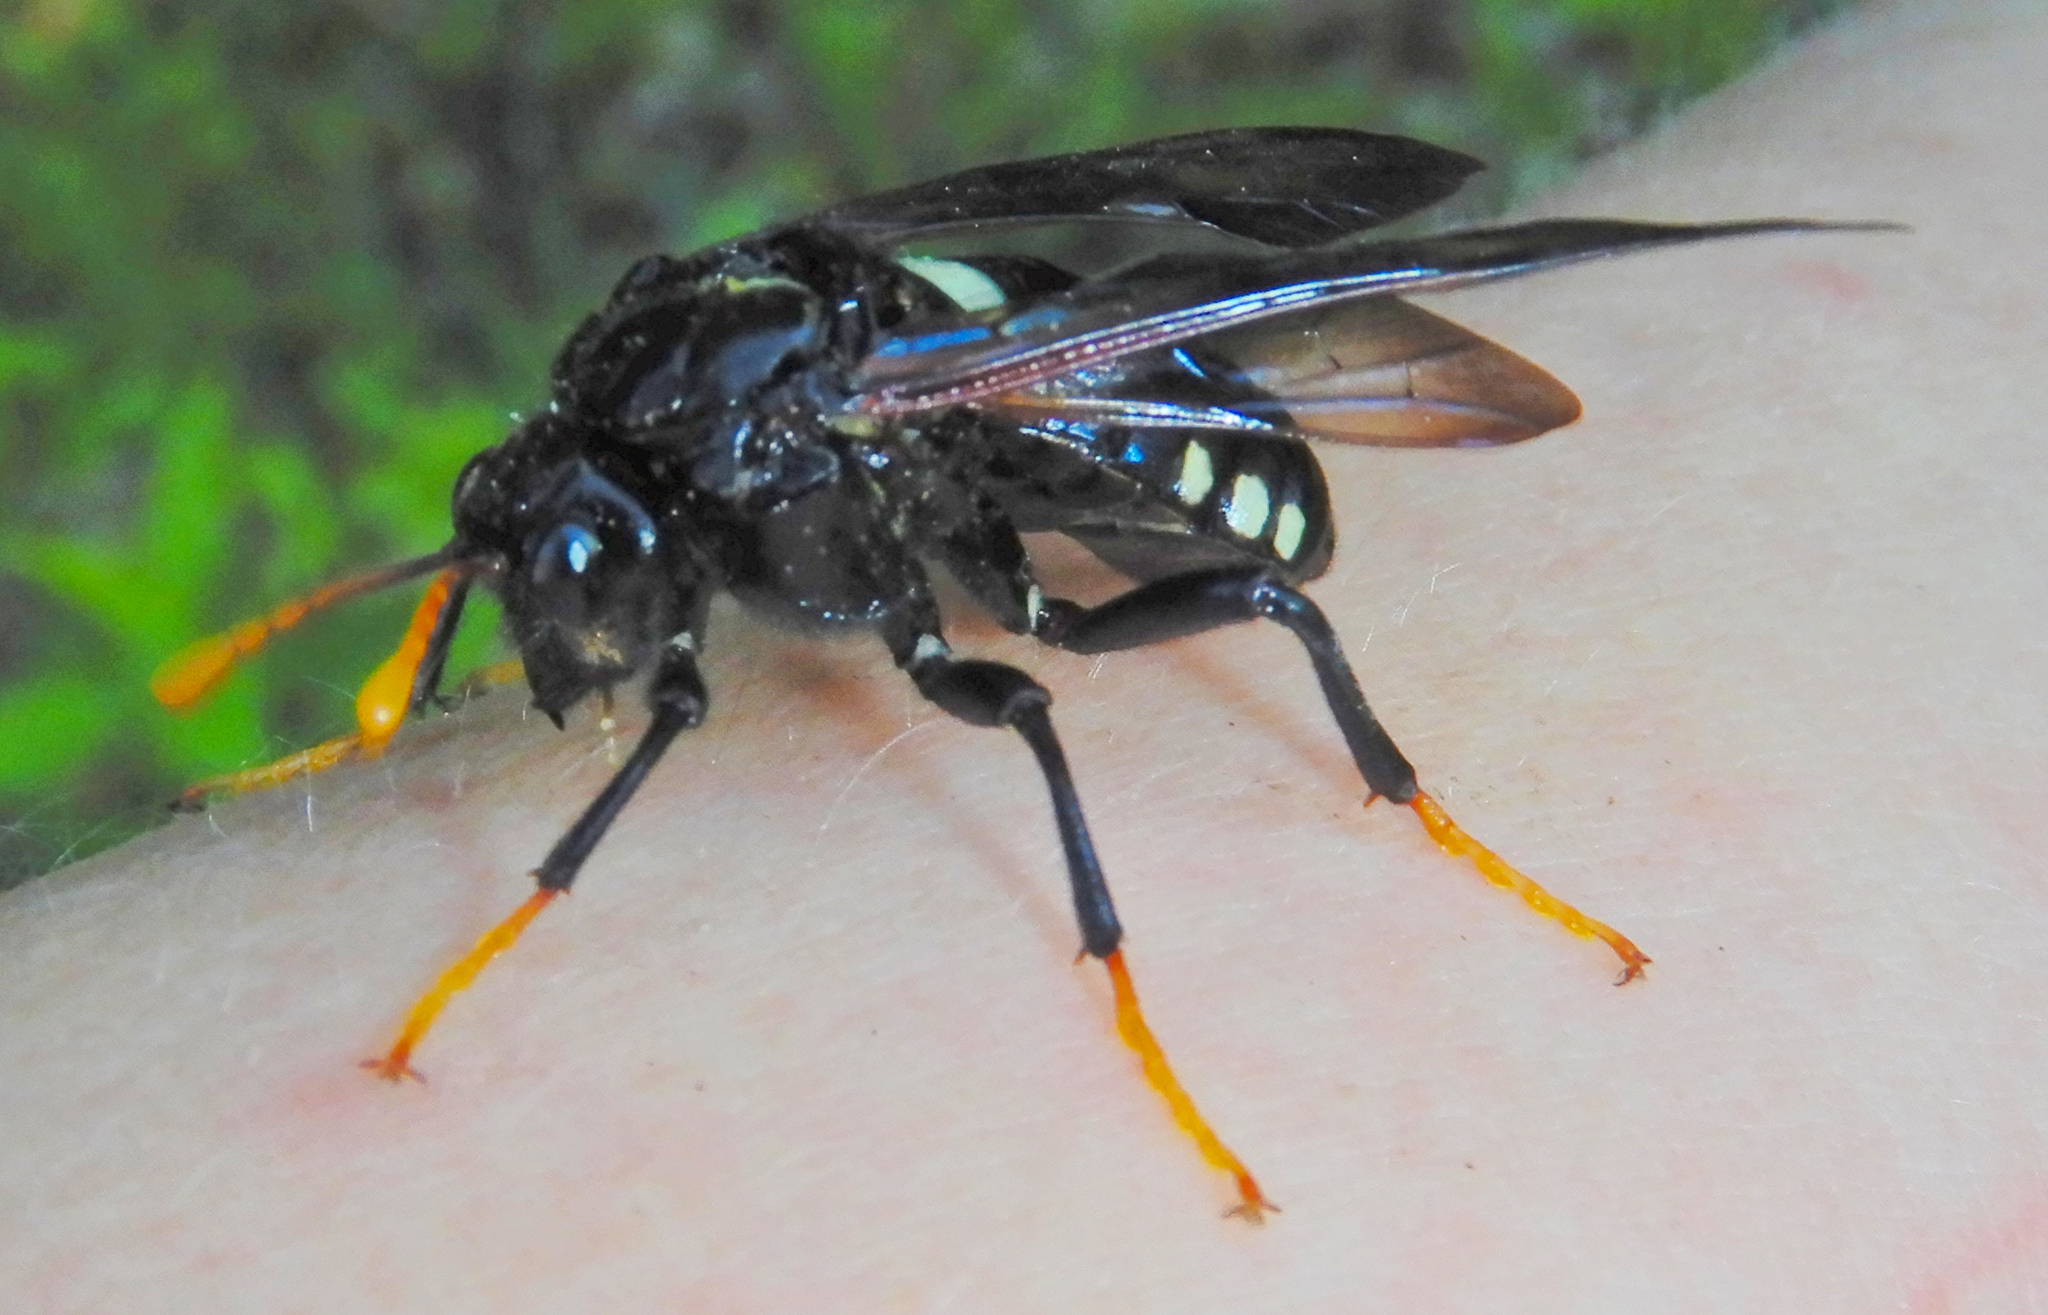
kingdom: Animalia
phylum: Arthropoda
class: Insecta
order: Hymenoptera
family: Cimbicidae
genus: Cimbex
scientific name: Cimbex americana
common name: Elm sawfly
